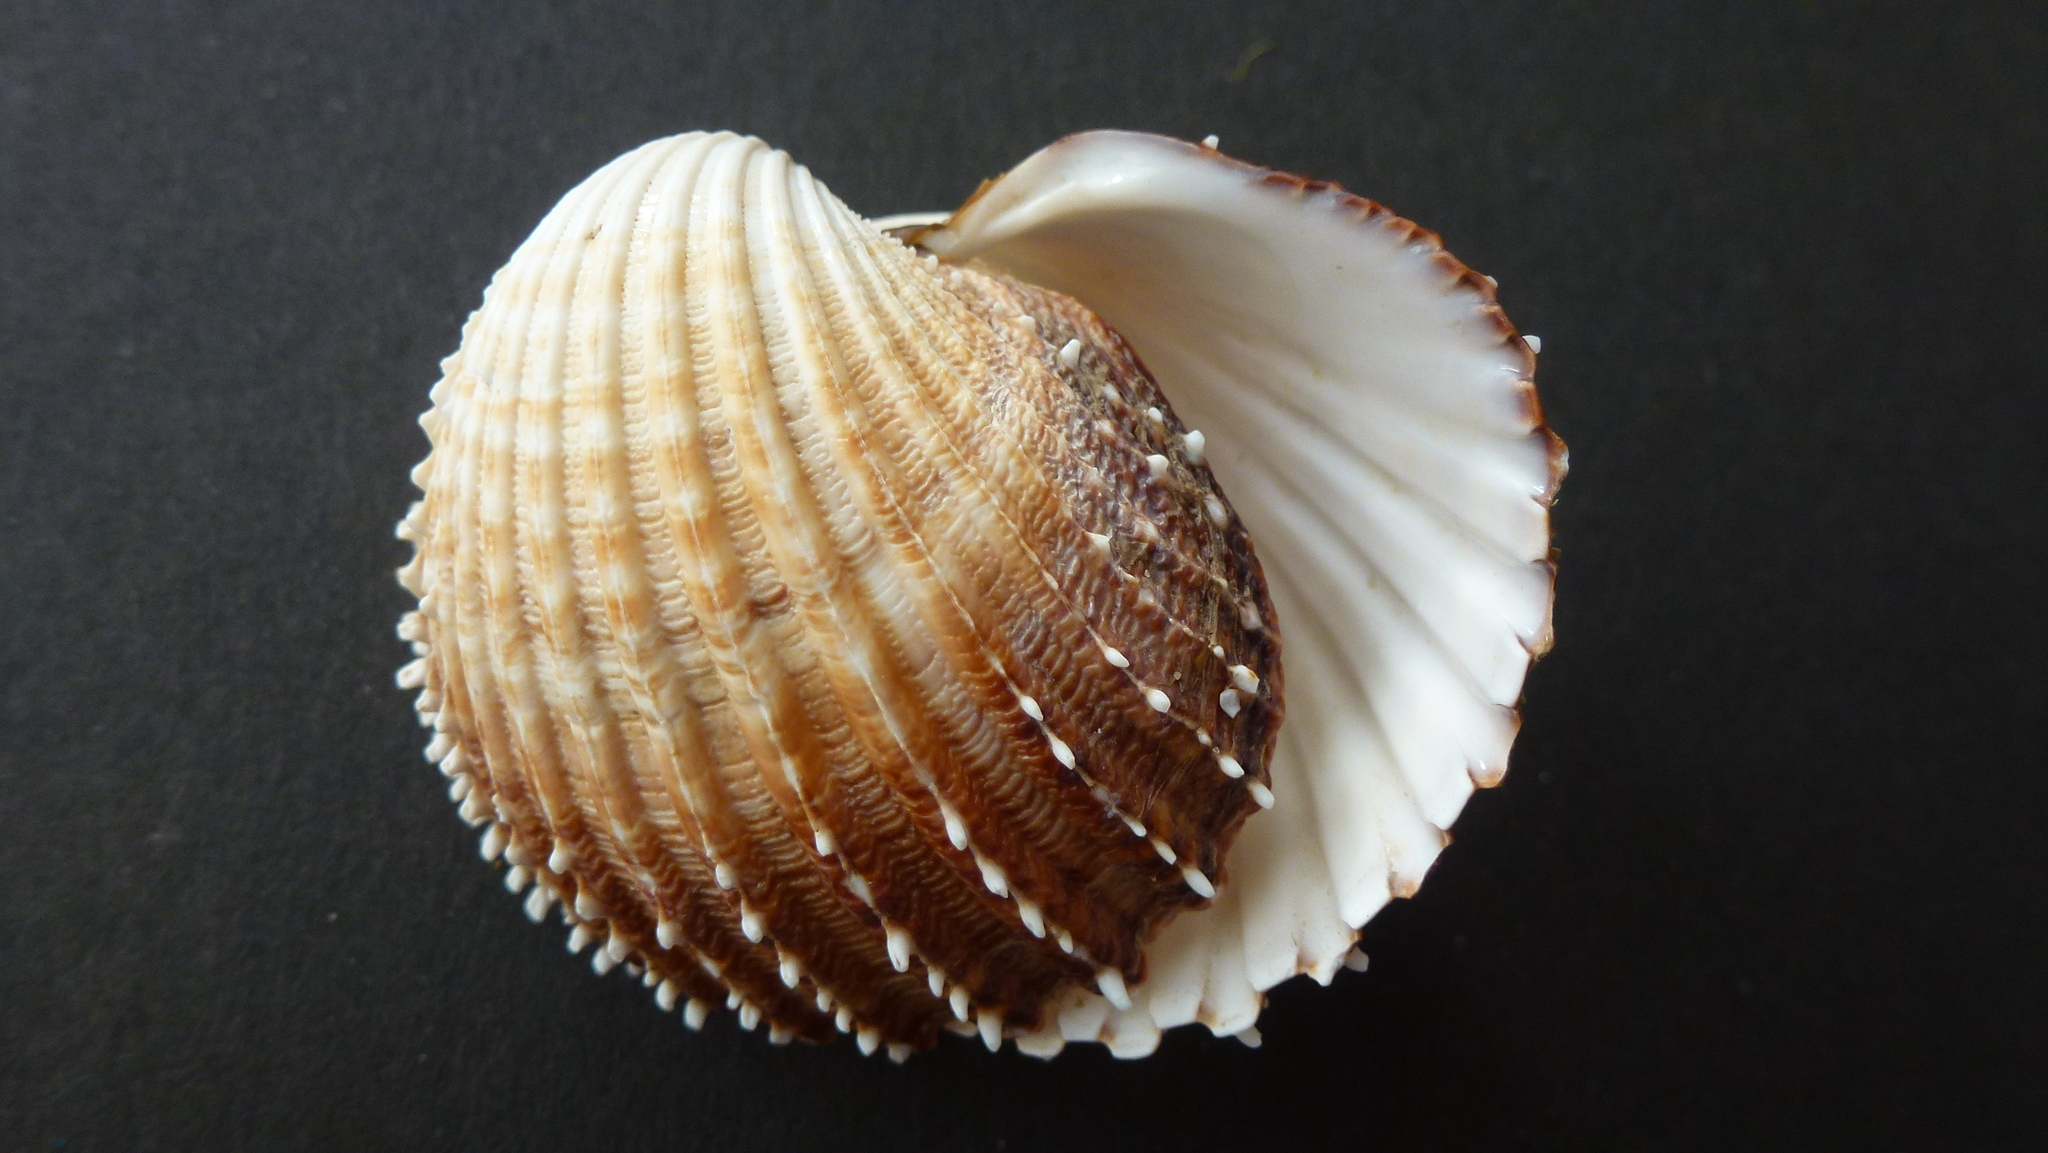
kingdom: Animalia
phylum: Mollusca
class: Bivalvia
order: Cardiida
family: Cardiidae
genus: Acanthocardia
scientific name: Acanthocardia echinata
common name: Prickly cockle
